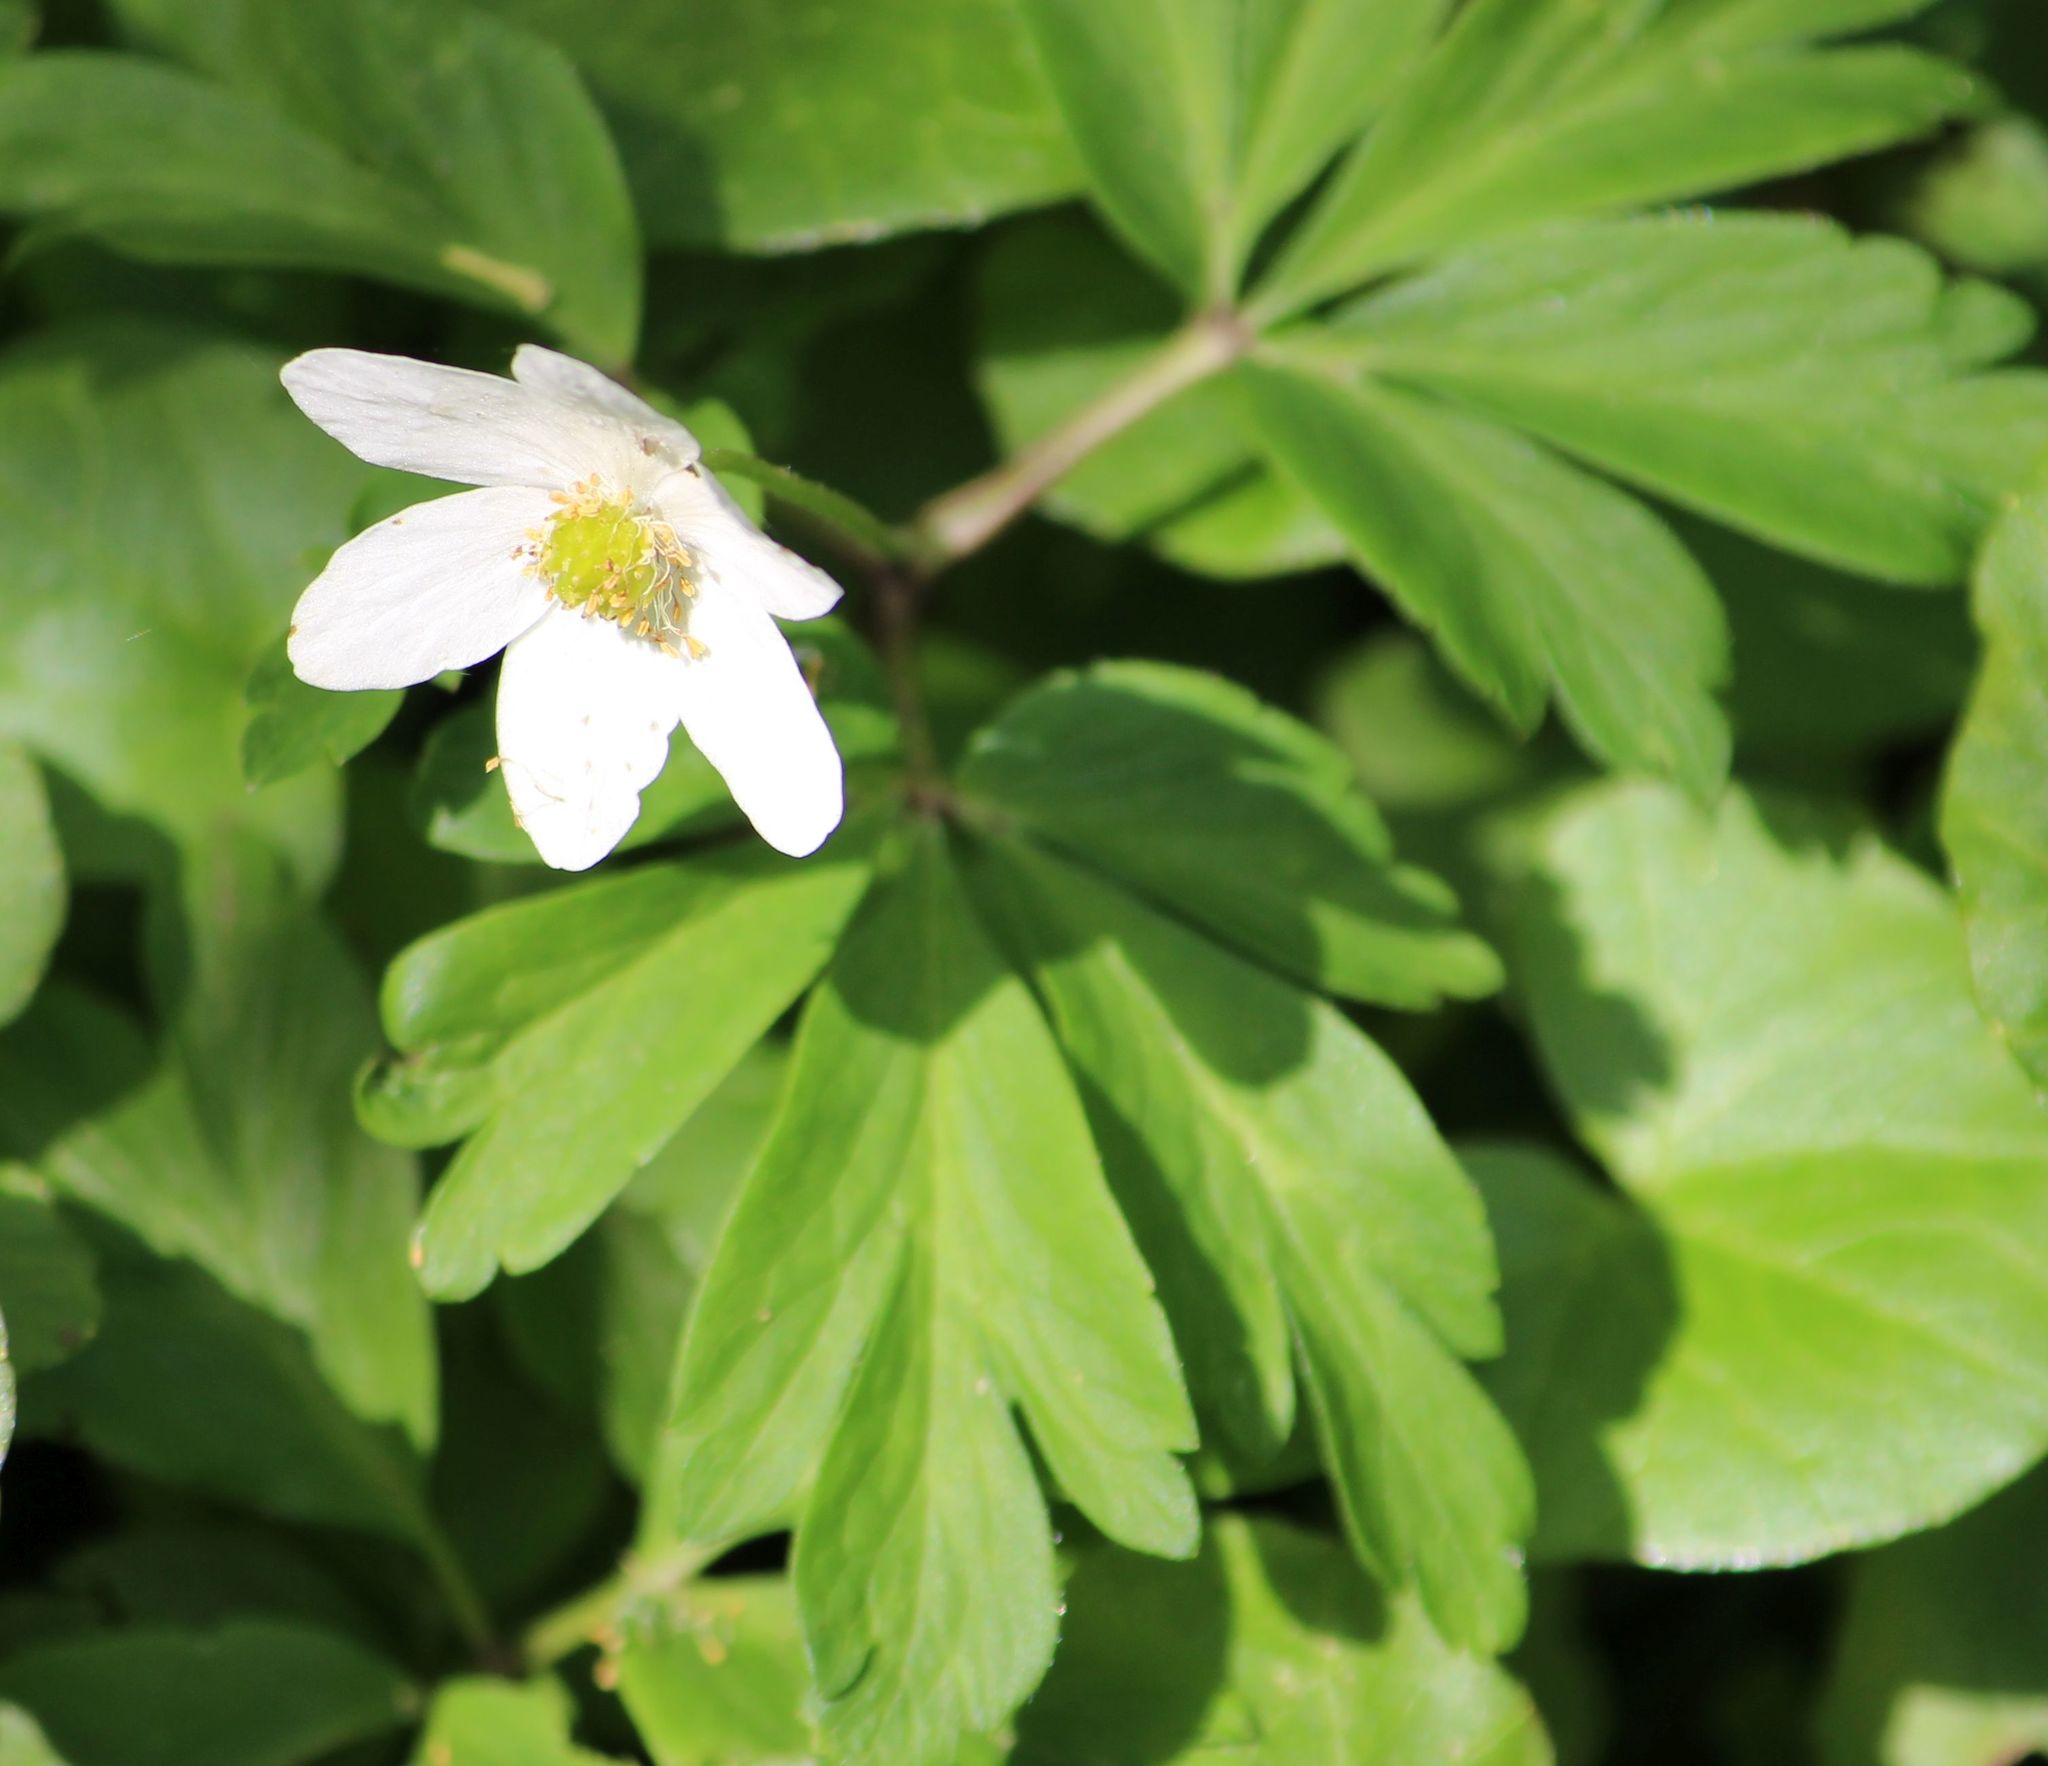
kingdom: Plantae
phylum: Tracheophyta
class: Magnoliopsida
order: Ranunculales
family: Ranunculaceae
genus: Anemone
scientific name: Anemone nemorosa
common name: Wood anemone
